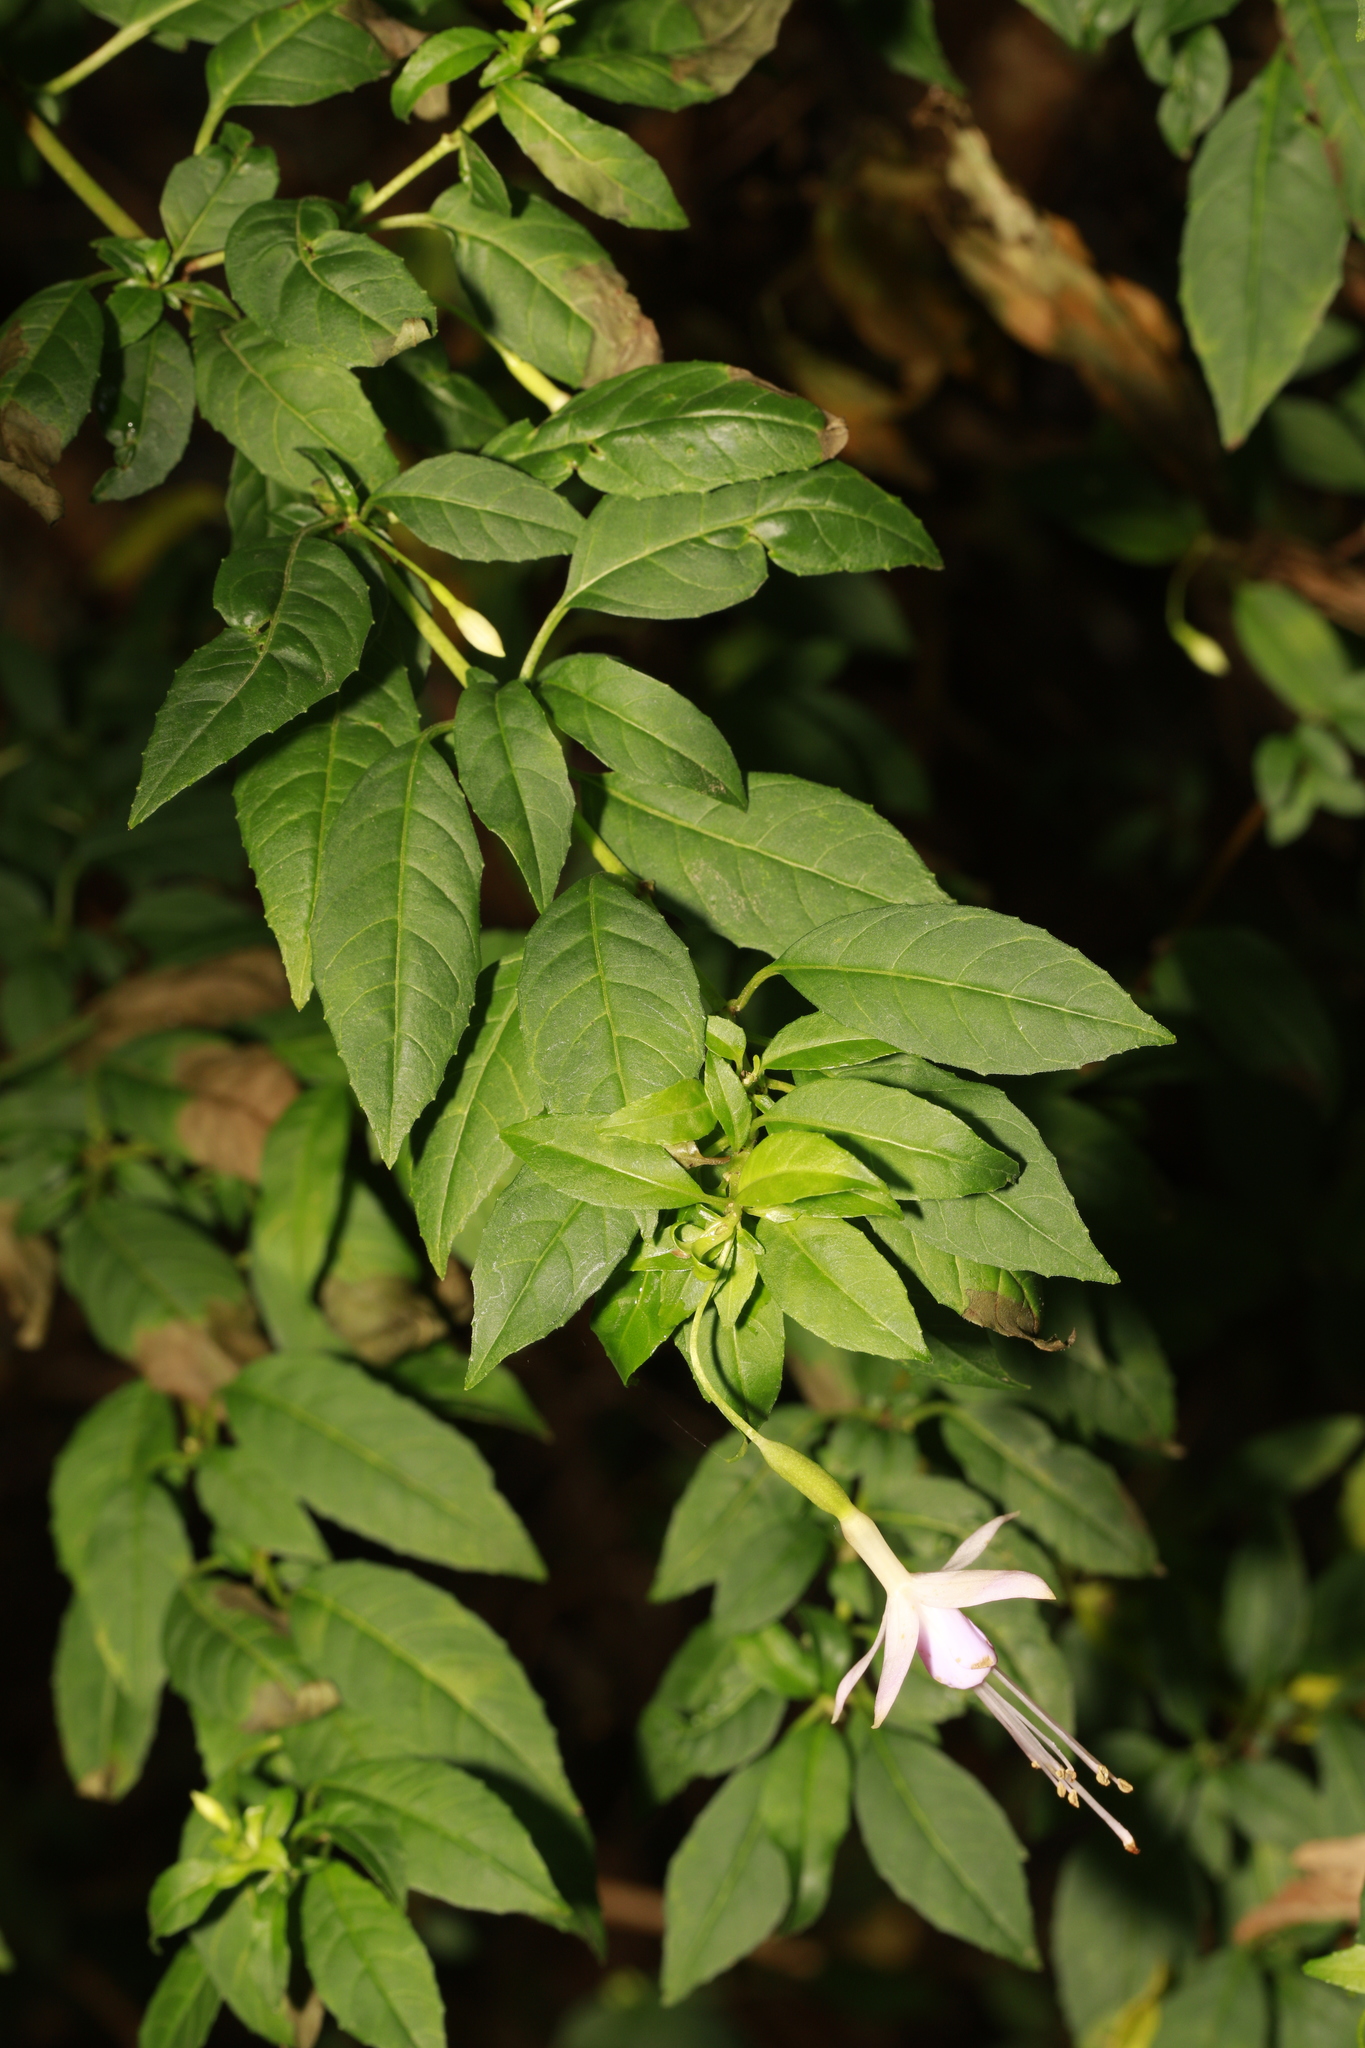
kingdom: Plantae
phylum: Tracheophyta
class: Magnoliopsida
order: Myrtales
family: Onagraceae
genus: Fuchsia
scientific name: Fuchsia magellanica
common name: Hardy fuchsia
